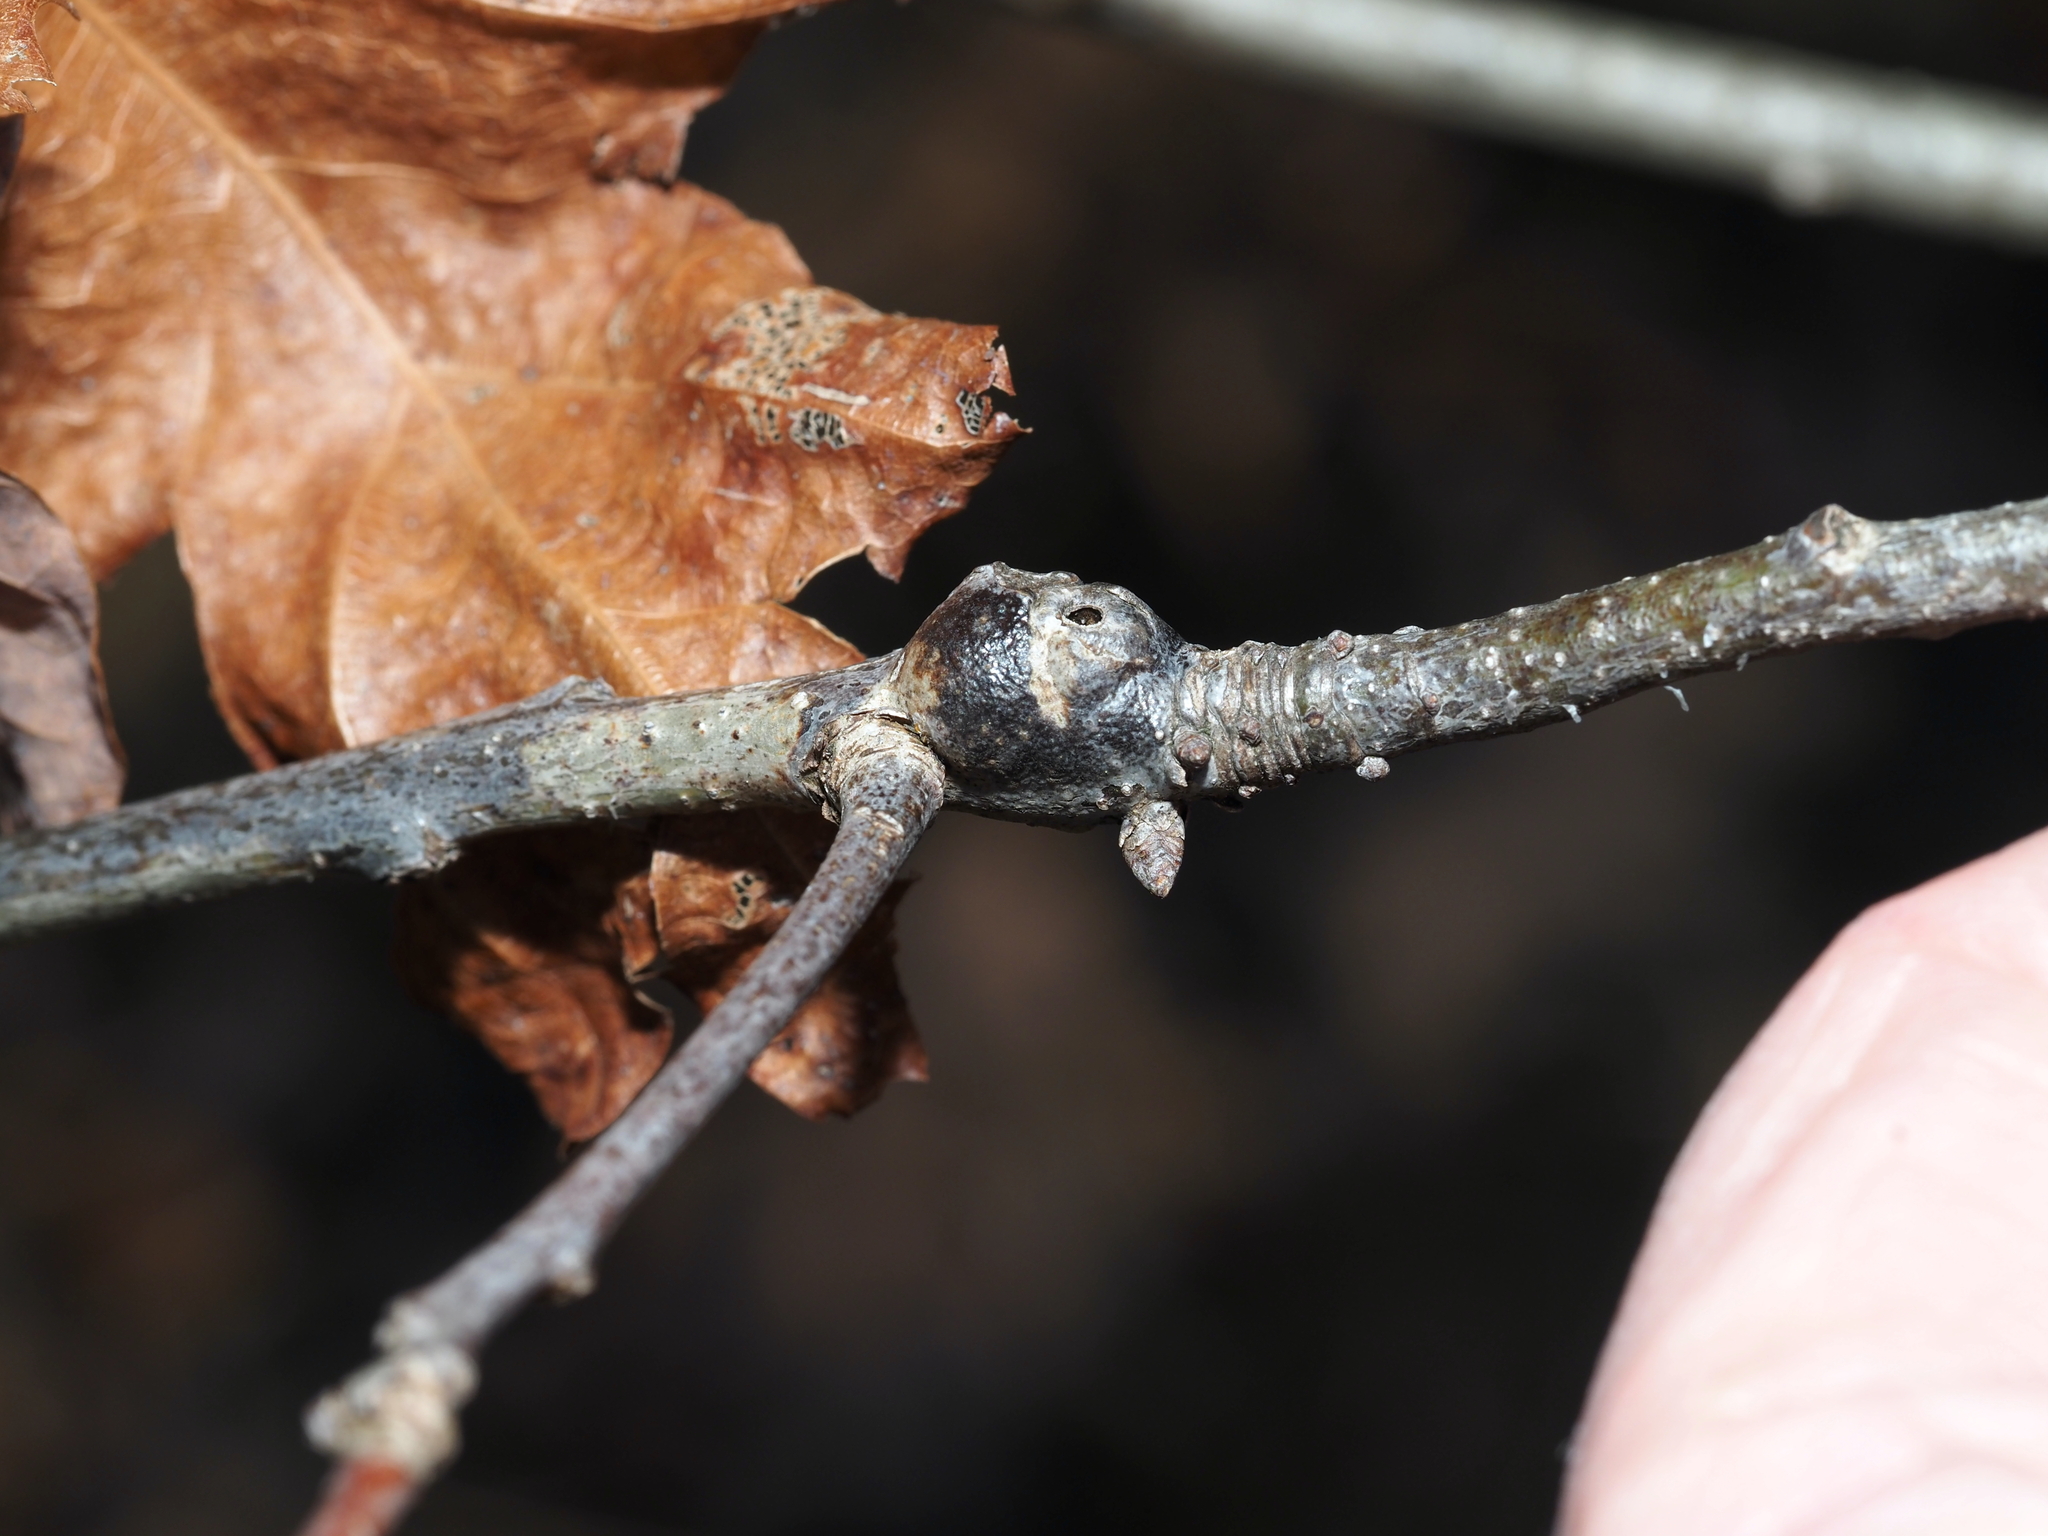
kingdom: Animalia
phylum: Arthropoda
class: Insecta
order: Hymenoptera
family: Cynipidae
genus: Callirhytis
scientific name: Callirhytis clavula
